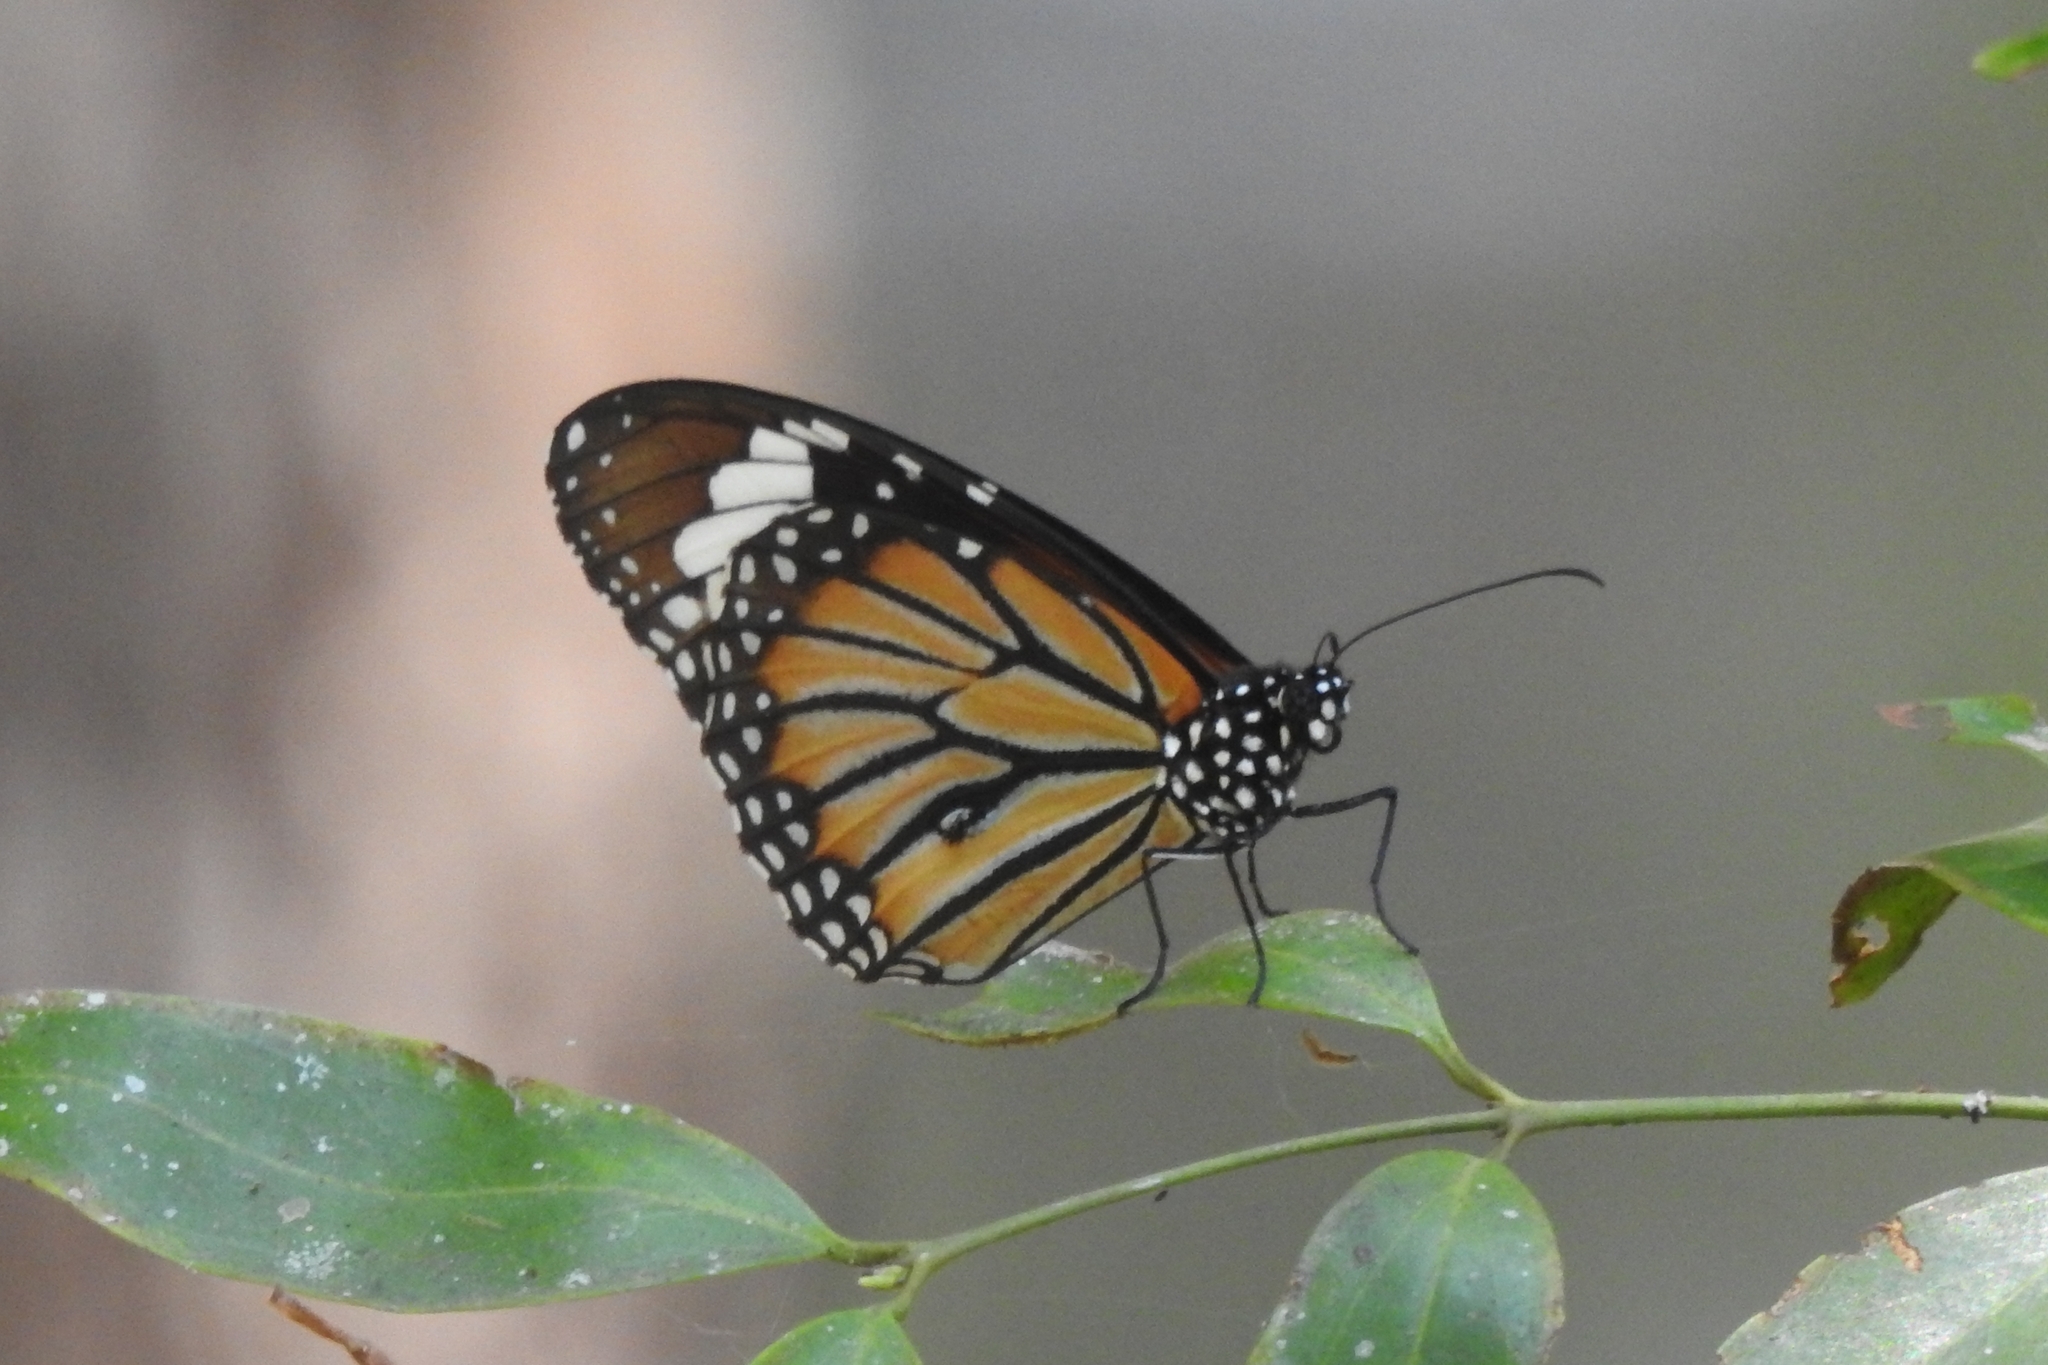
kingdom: Animalia
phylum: Arthropoda
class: Insecta
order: Lepidoptera
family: Nymphalidae
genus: Danaus
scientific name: Danaus genutia
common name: Common tiger butterfly
